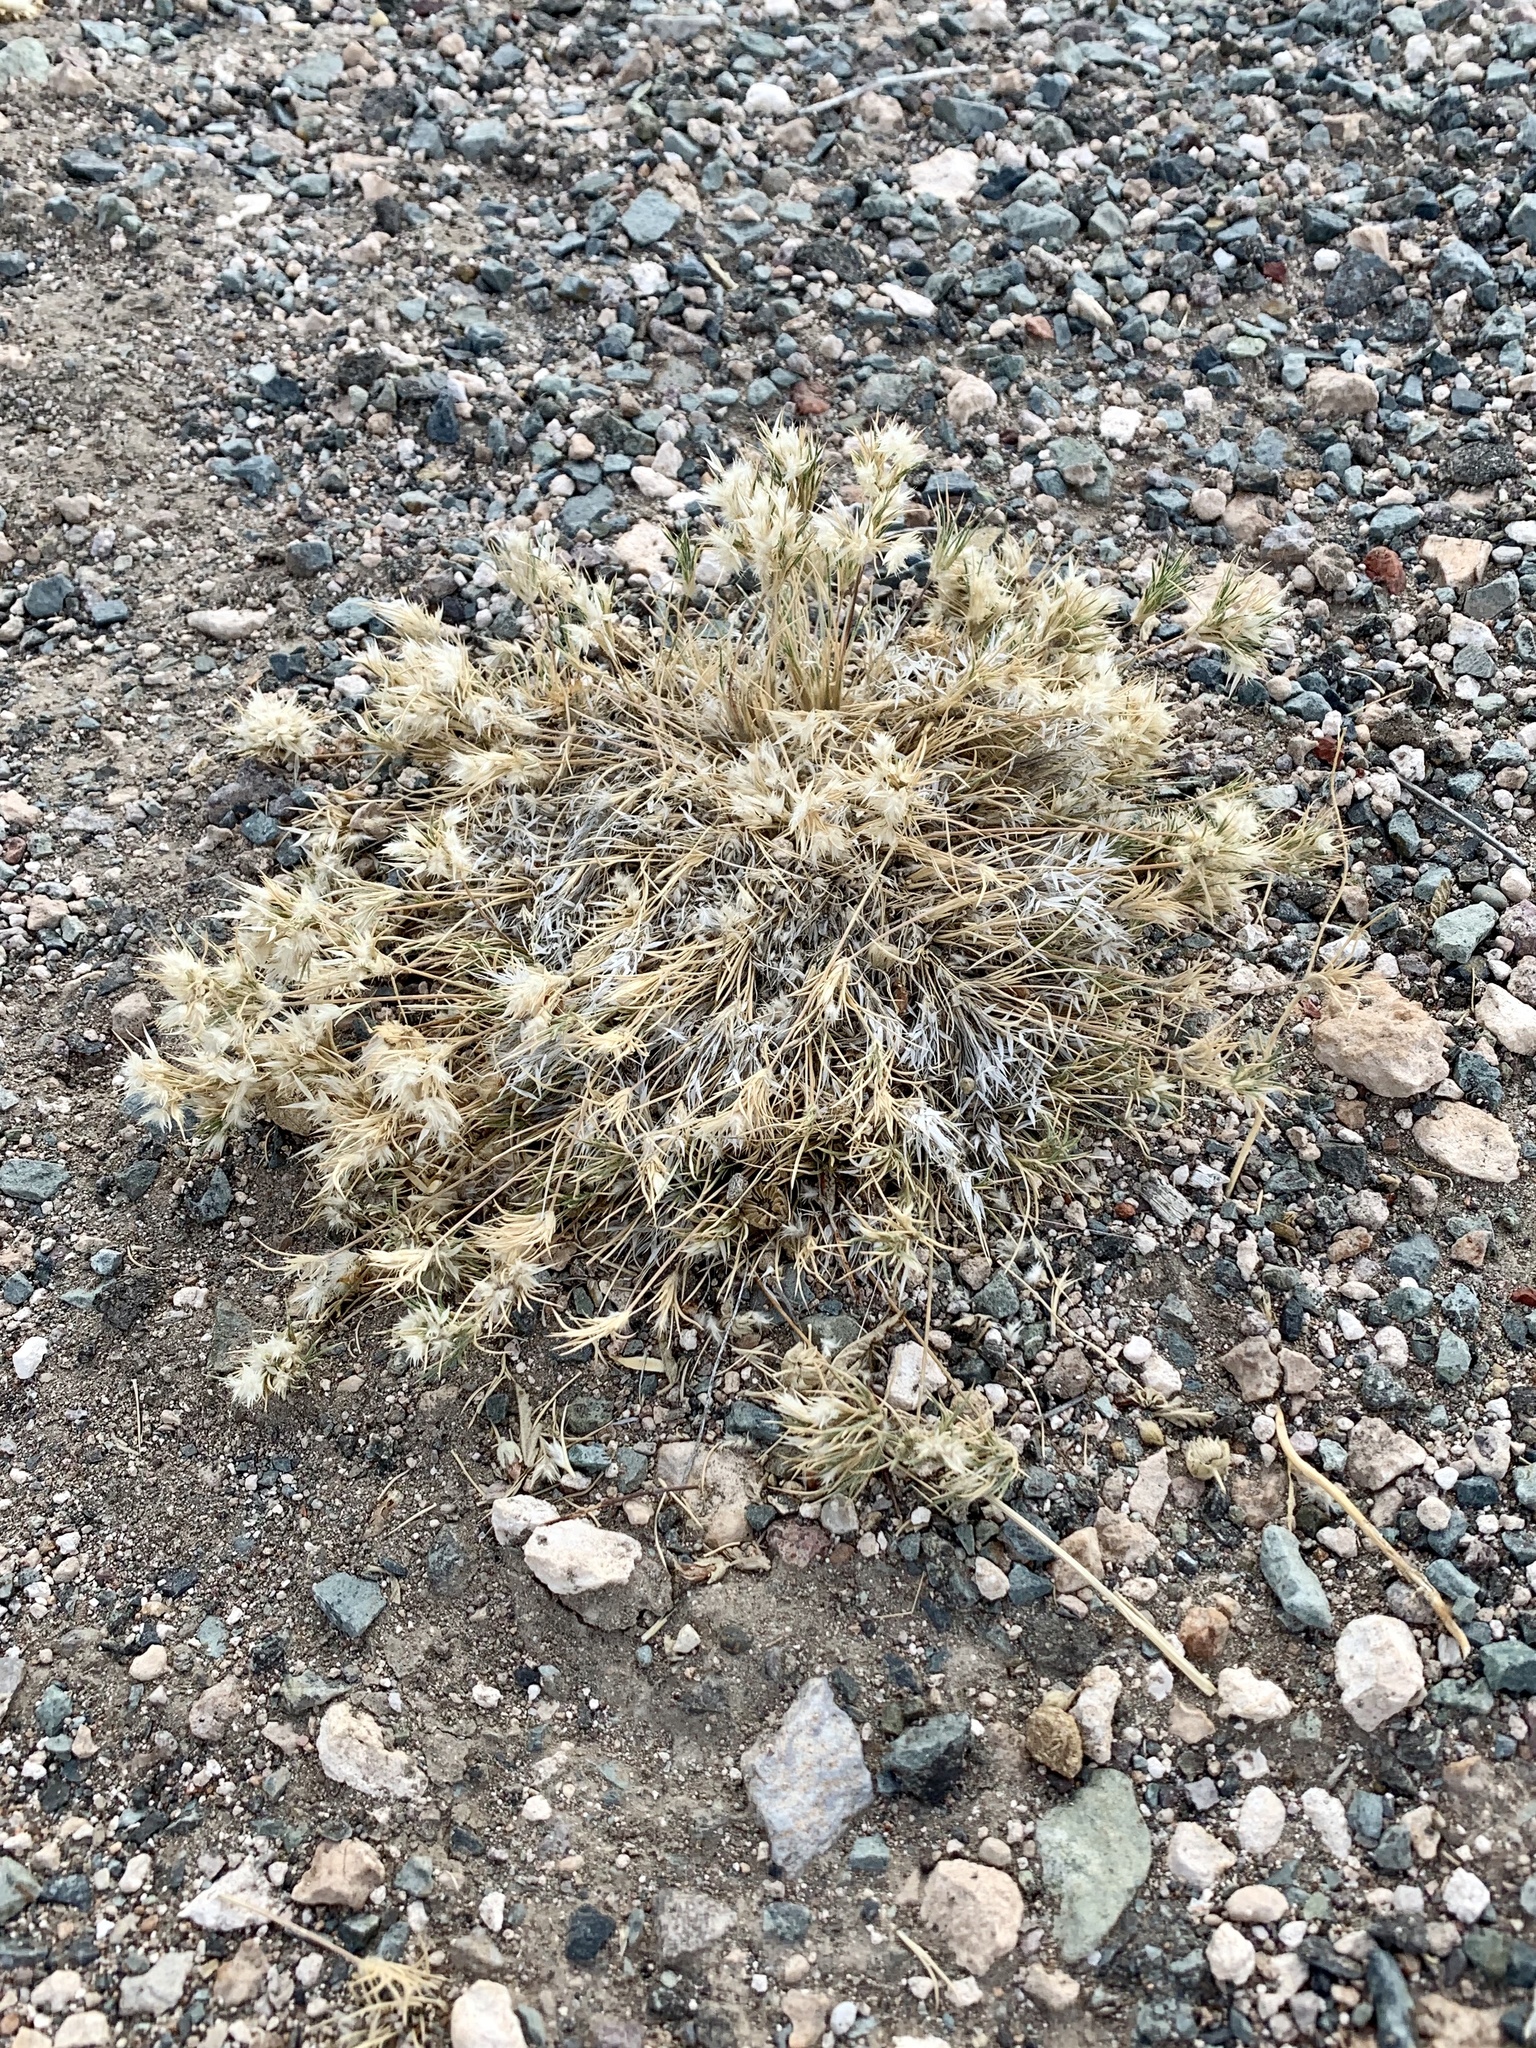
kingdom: Plantae
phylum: Tracheophyta
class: Liliopsida
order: Poales
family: Poaceae
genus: Dasyochloa
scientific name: Dasyochloa pulchella
